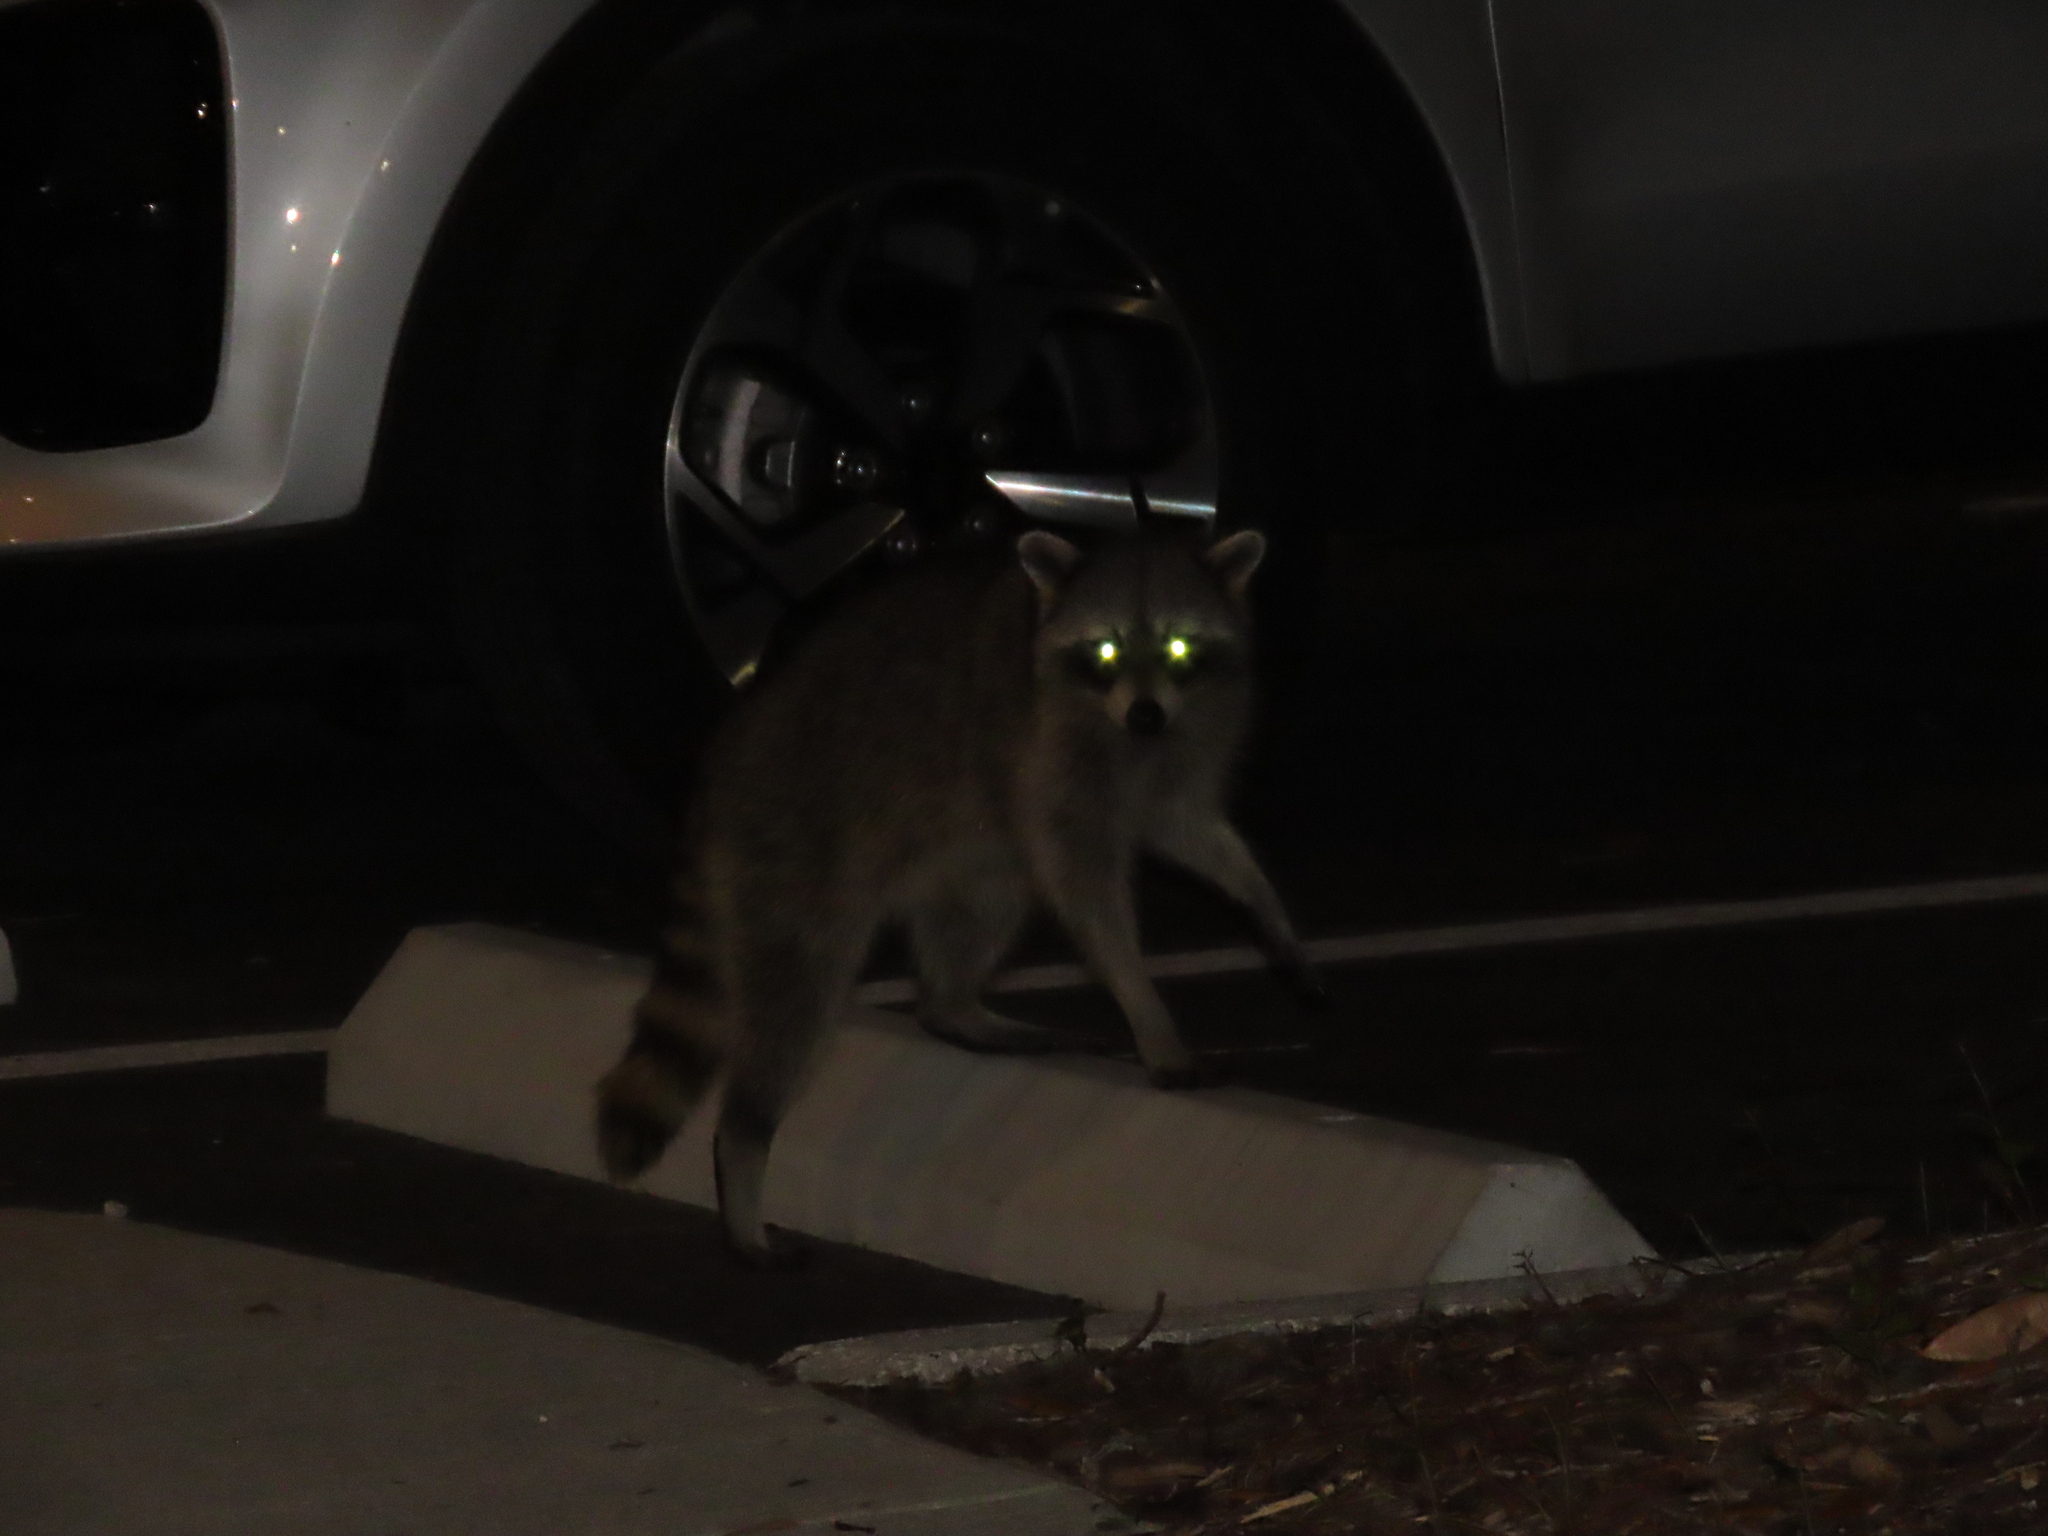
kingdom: Animalia
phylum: Chordata
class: Mammalia
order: Carnivora
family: Procyonidae
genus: Procyon
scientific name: Procyon lotor
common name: Raccoon
